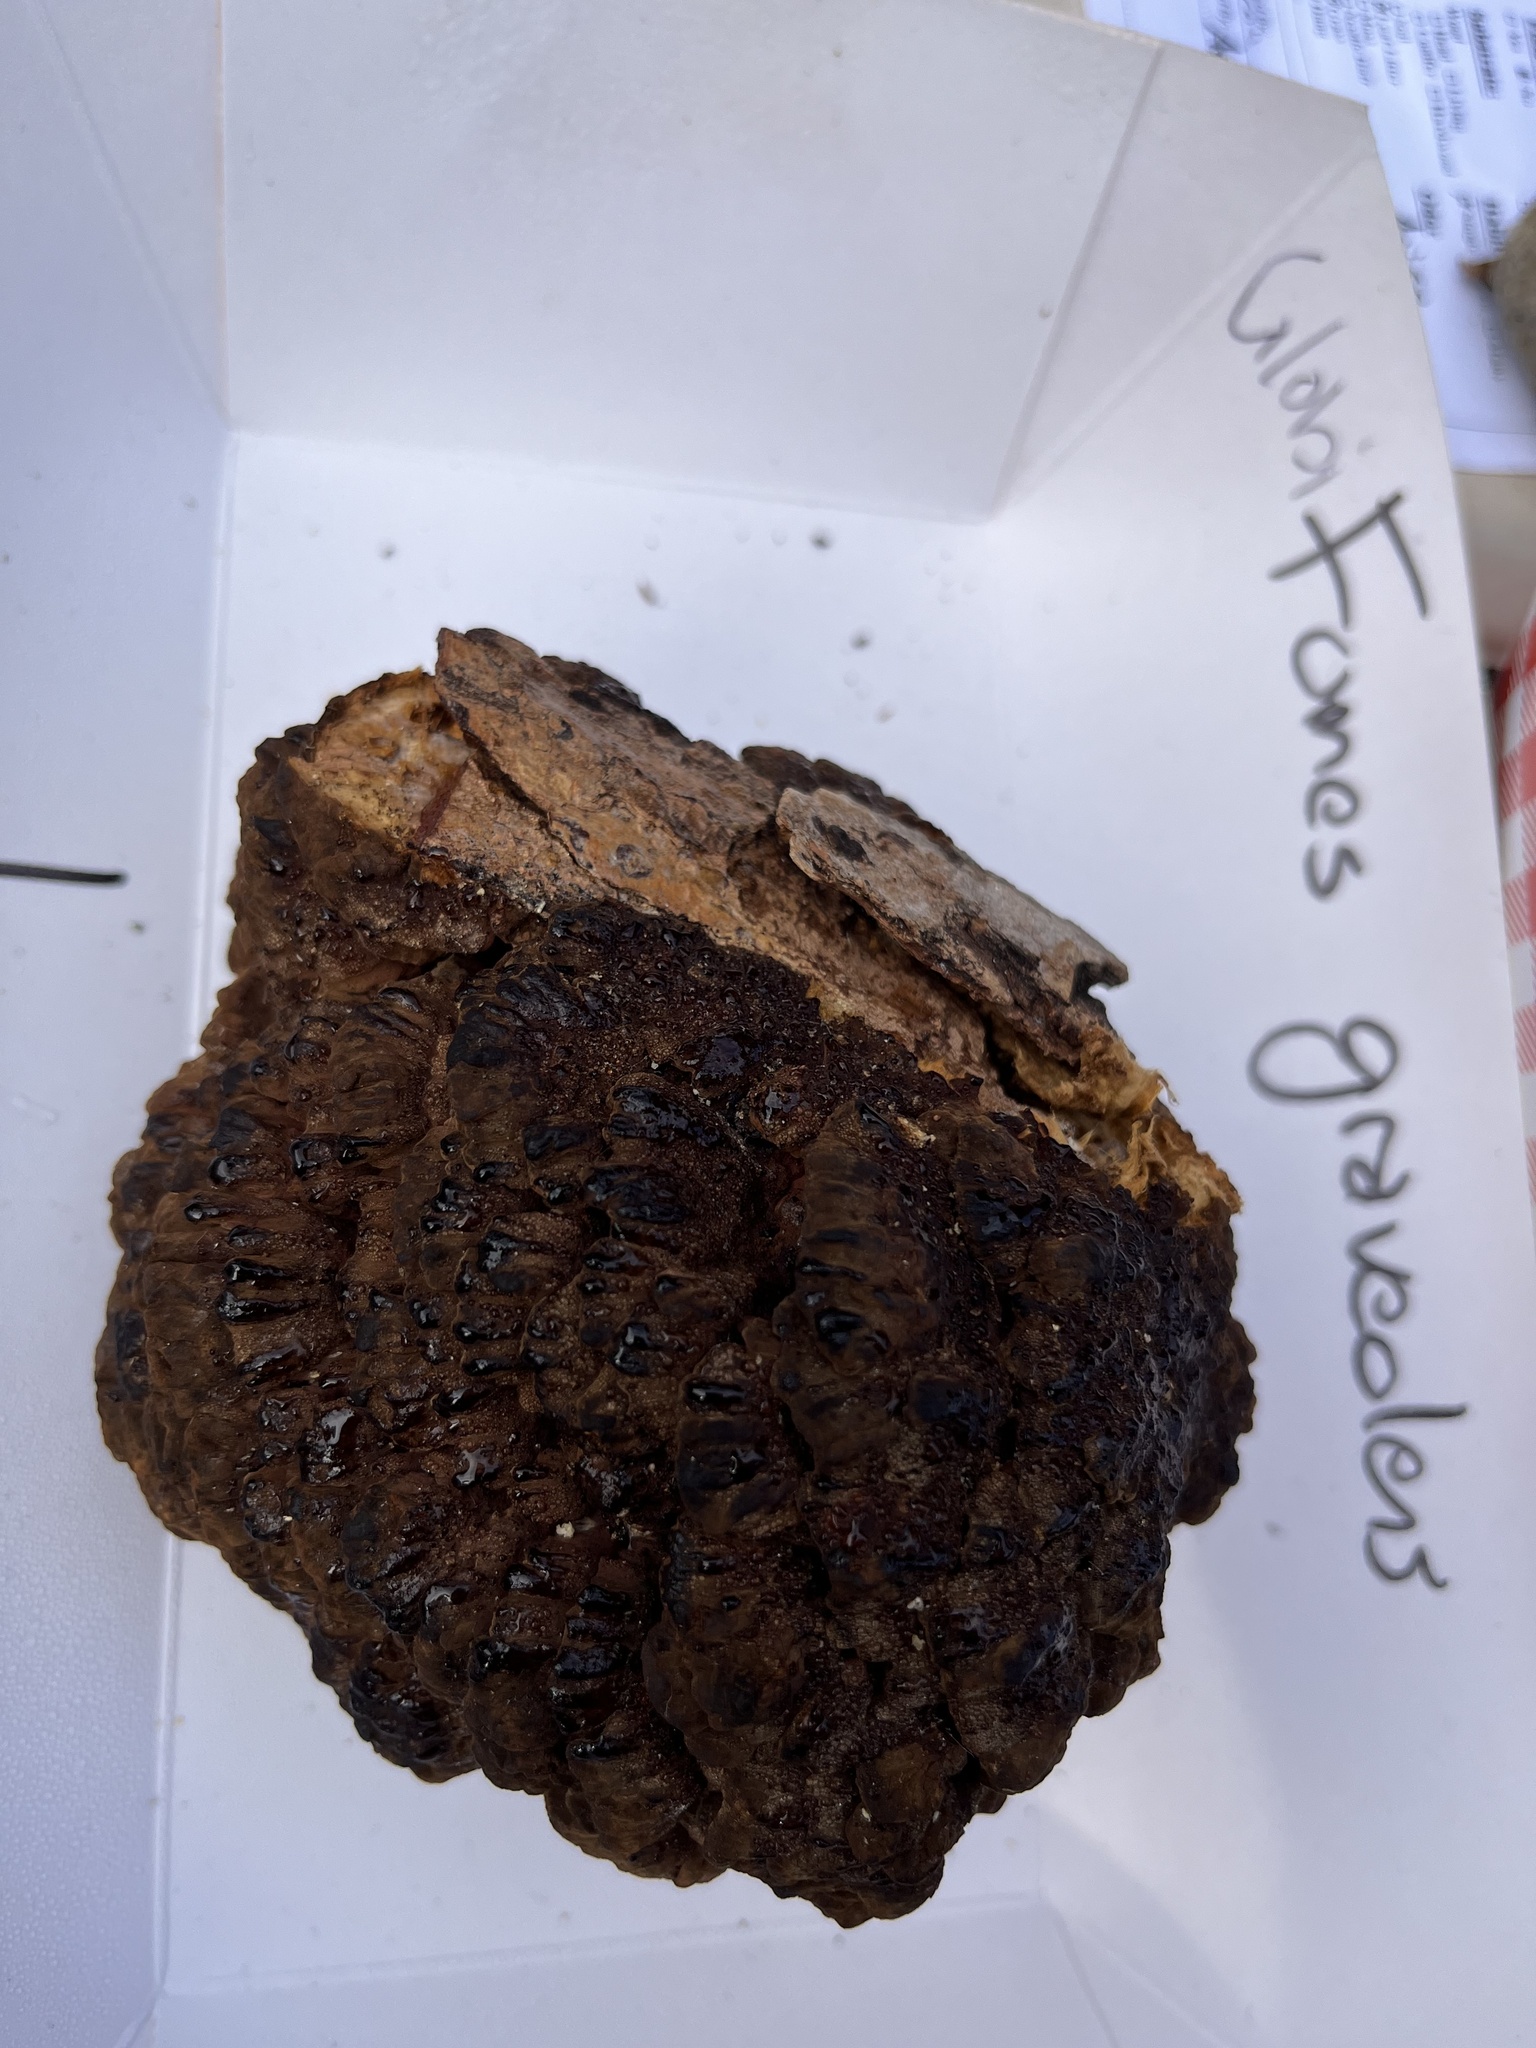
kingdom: Fungi
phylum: Basidiomycota
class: Agaricomycetes
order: Polyporales
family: Polyporaceae
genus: Globifomes
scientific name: Globifomes graveolens
